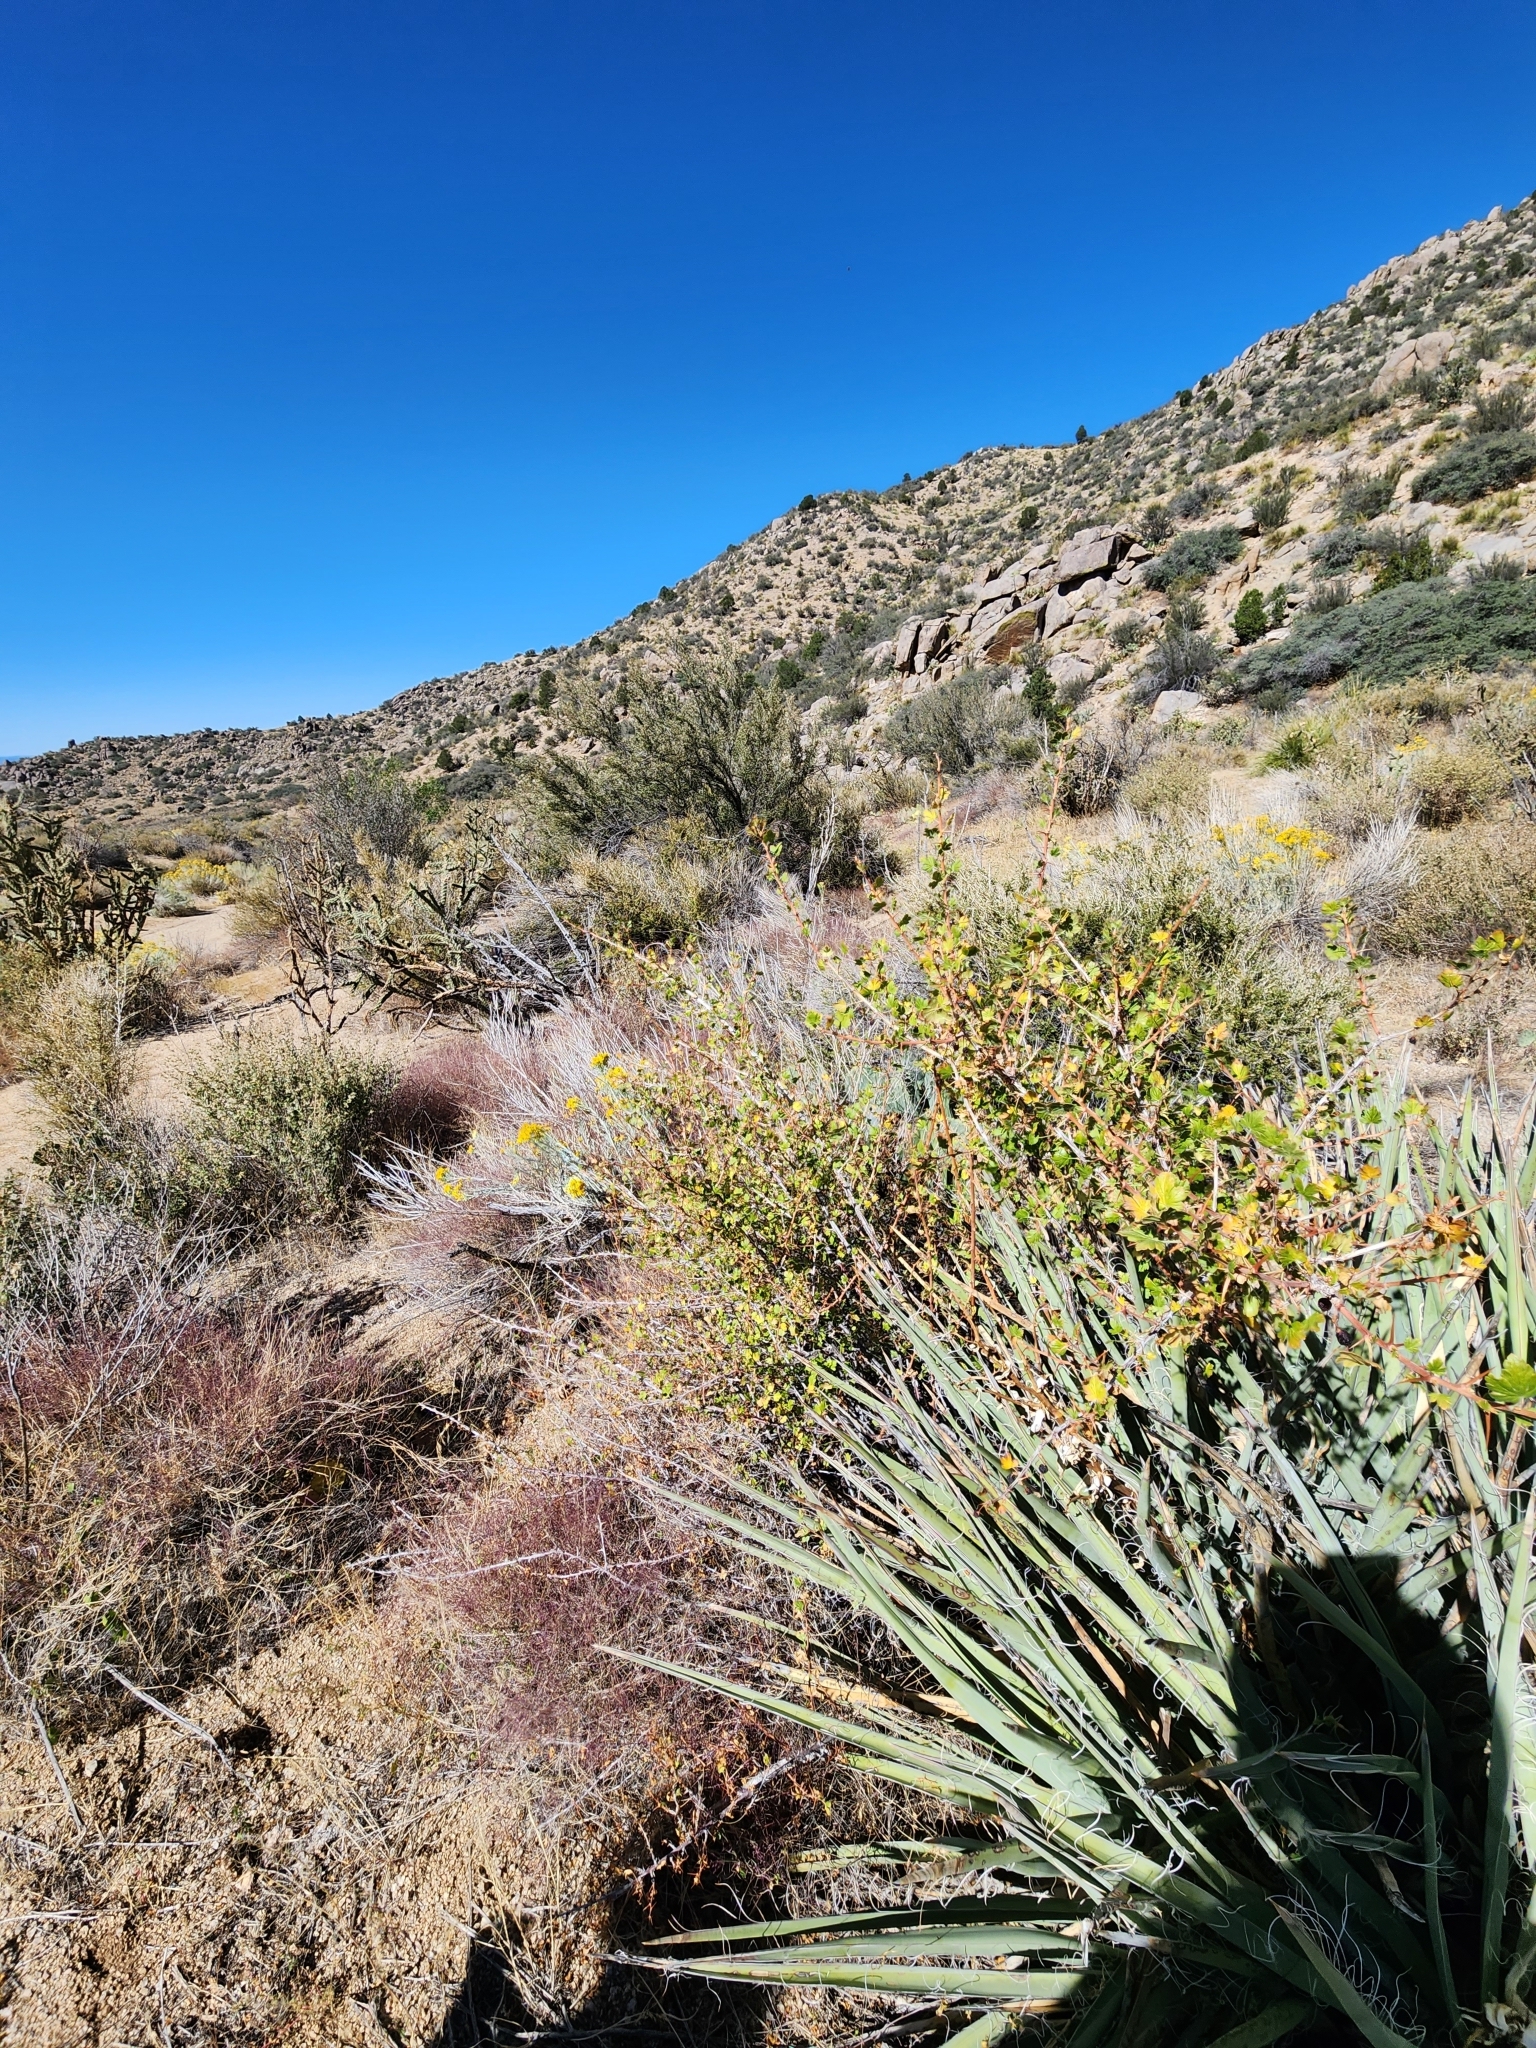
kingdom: Plantae
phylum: Tracheophyta
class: Magnoliopsida
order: Saxifragales
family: Grossulariaceae
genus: Ribes
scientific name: Ribes pinetorum
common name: Orange gooseberry
